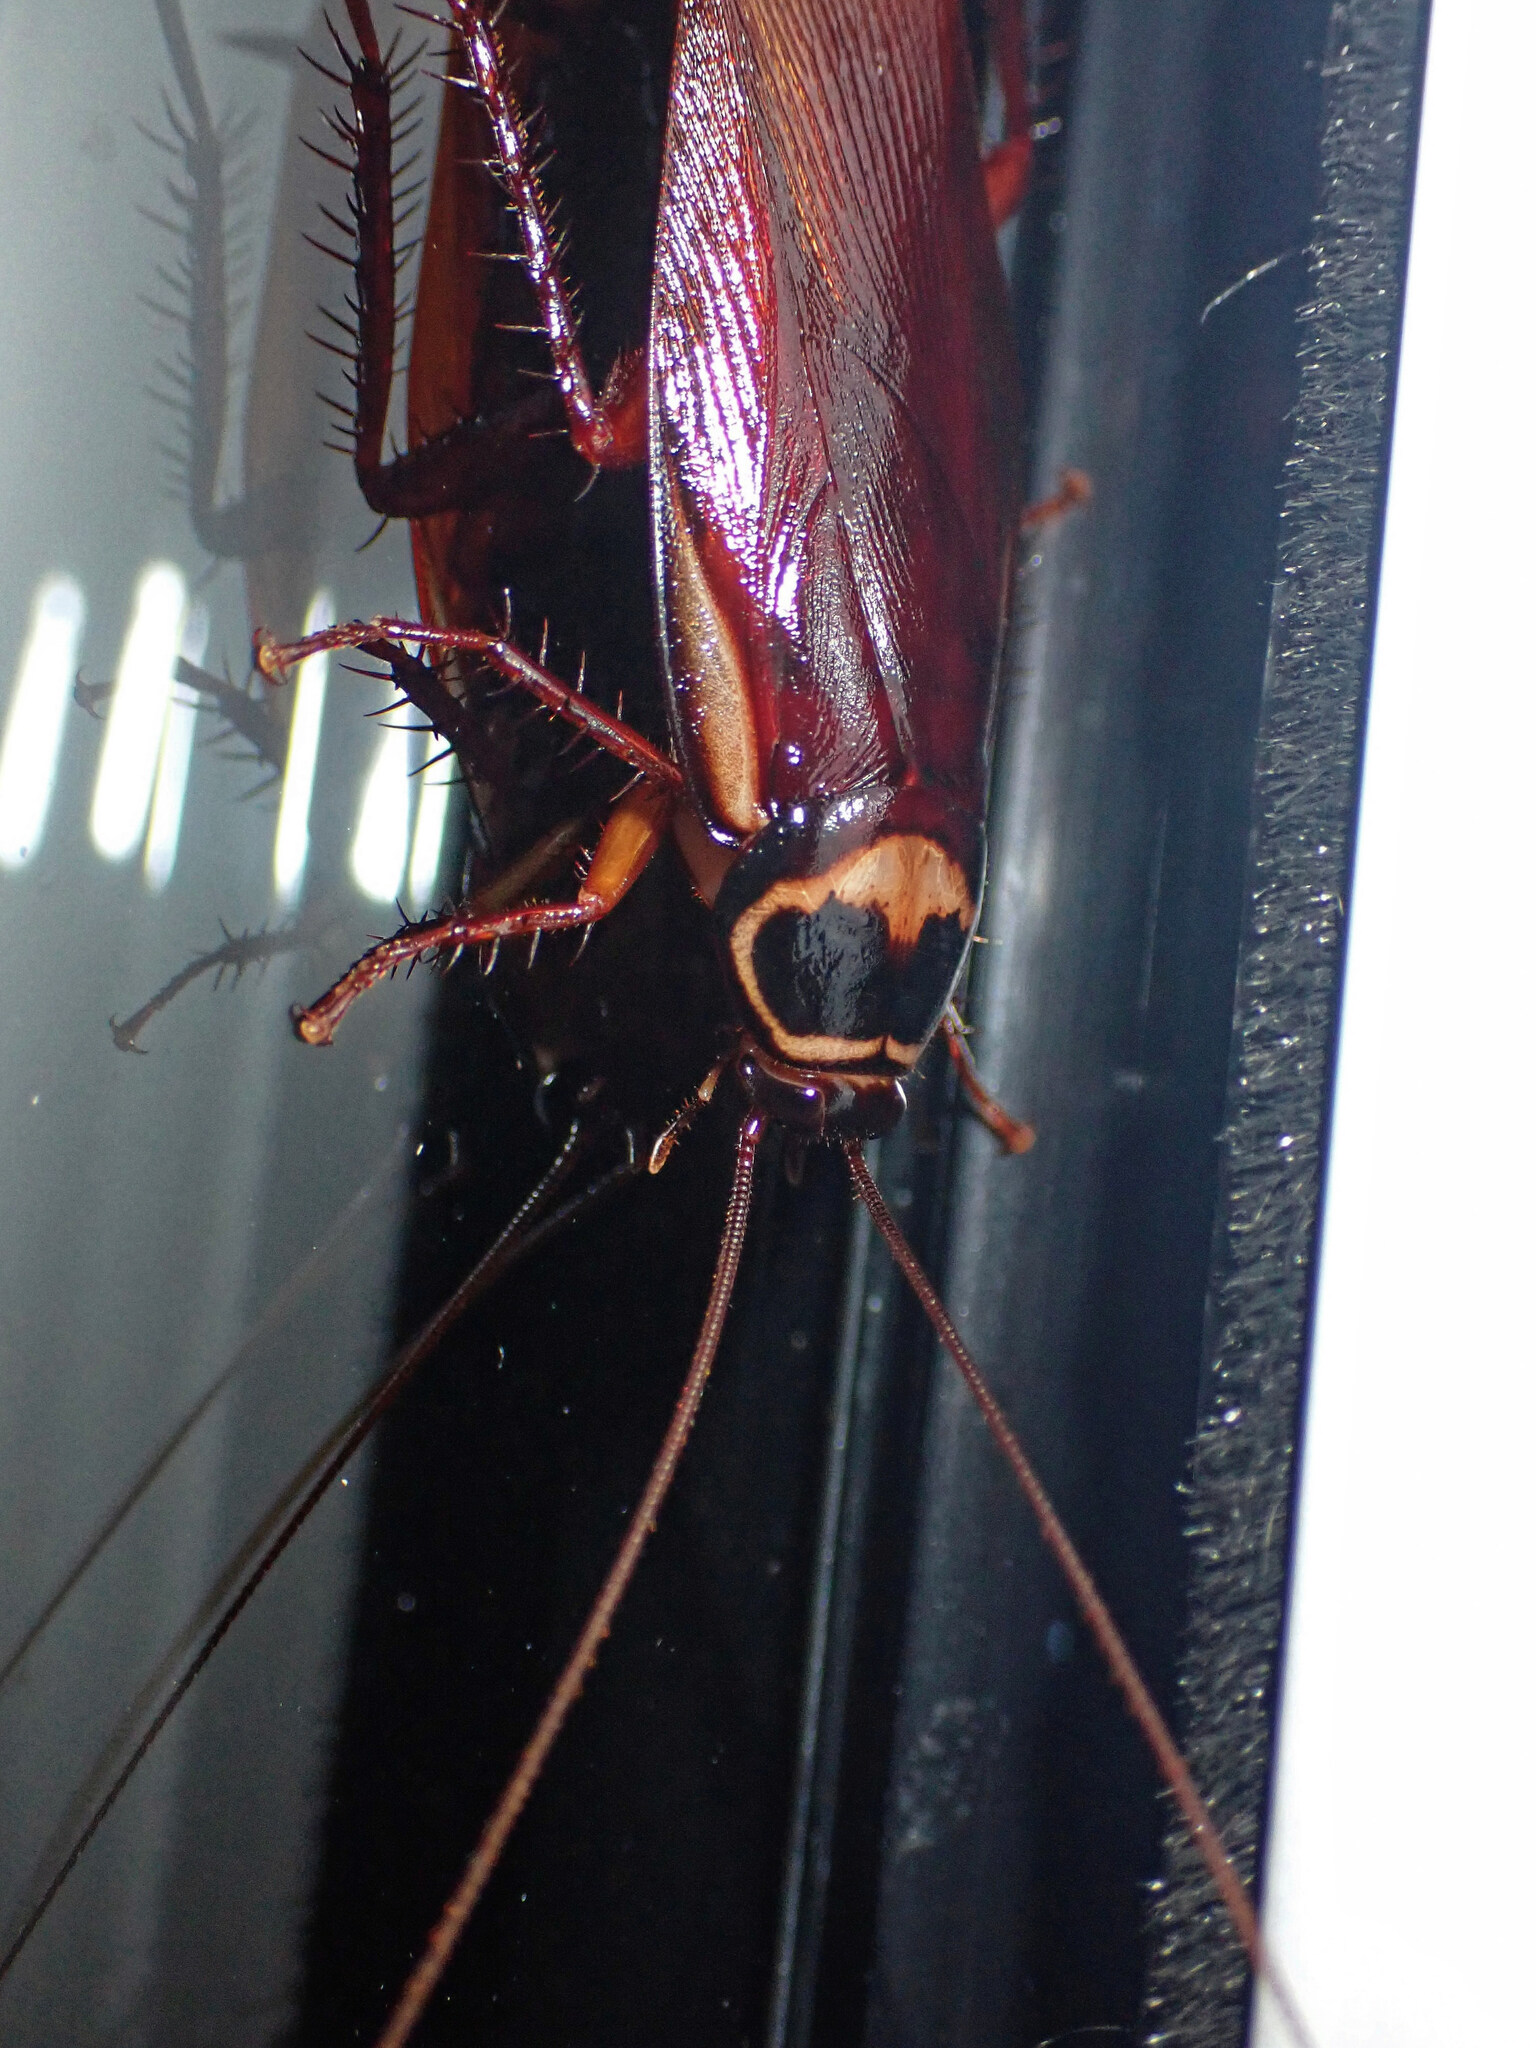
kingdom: Animalia
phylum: Arthropoda
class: Insecta
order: Blattodea
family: Blattidae
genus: Periplaneta
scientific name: Periplaneta australasiae
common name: Australian cockroach
